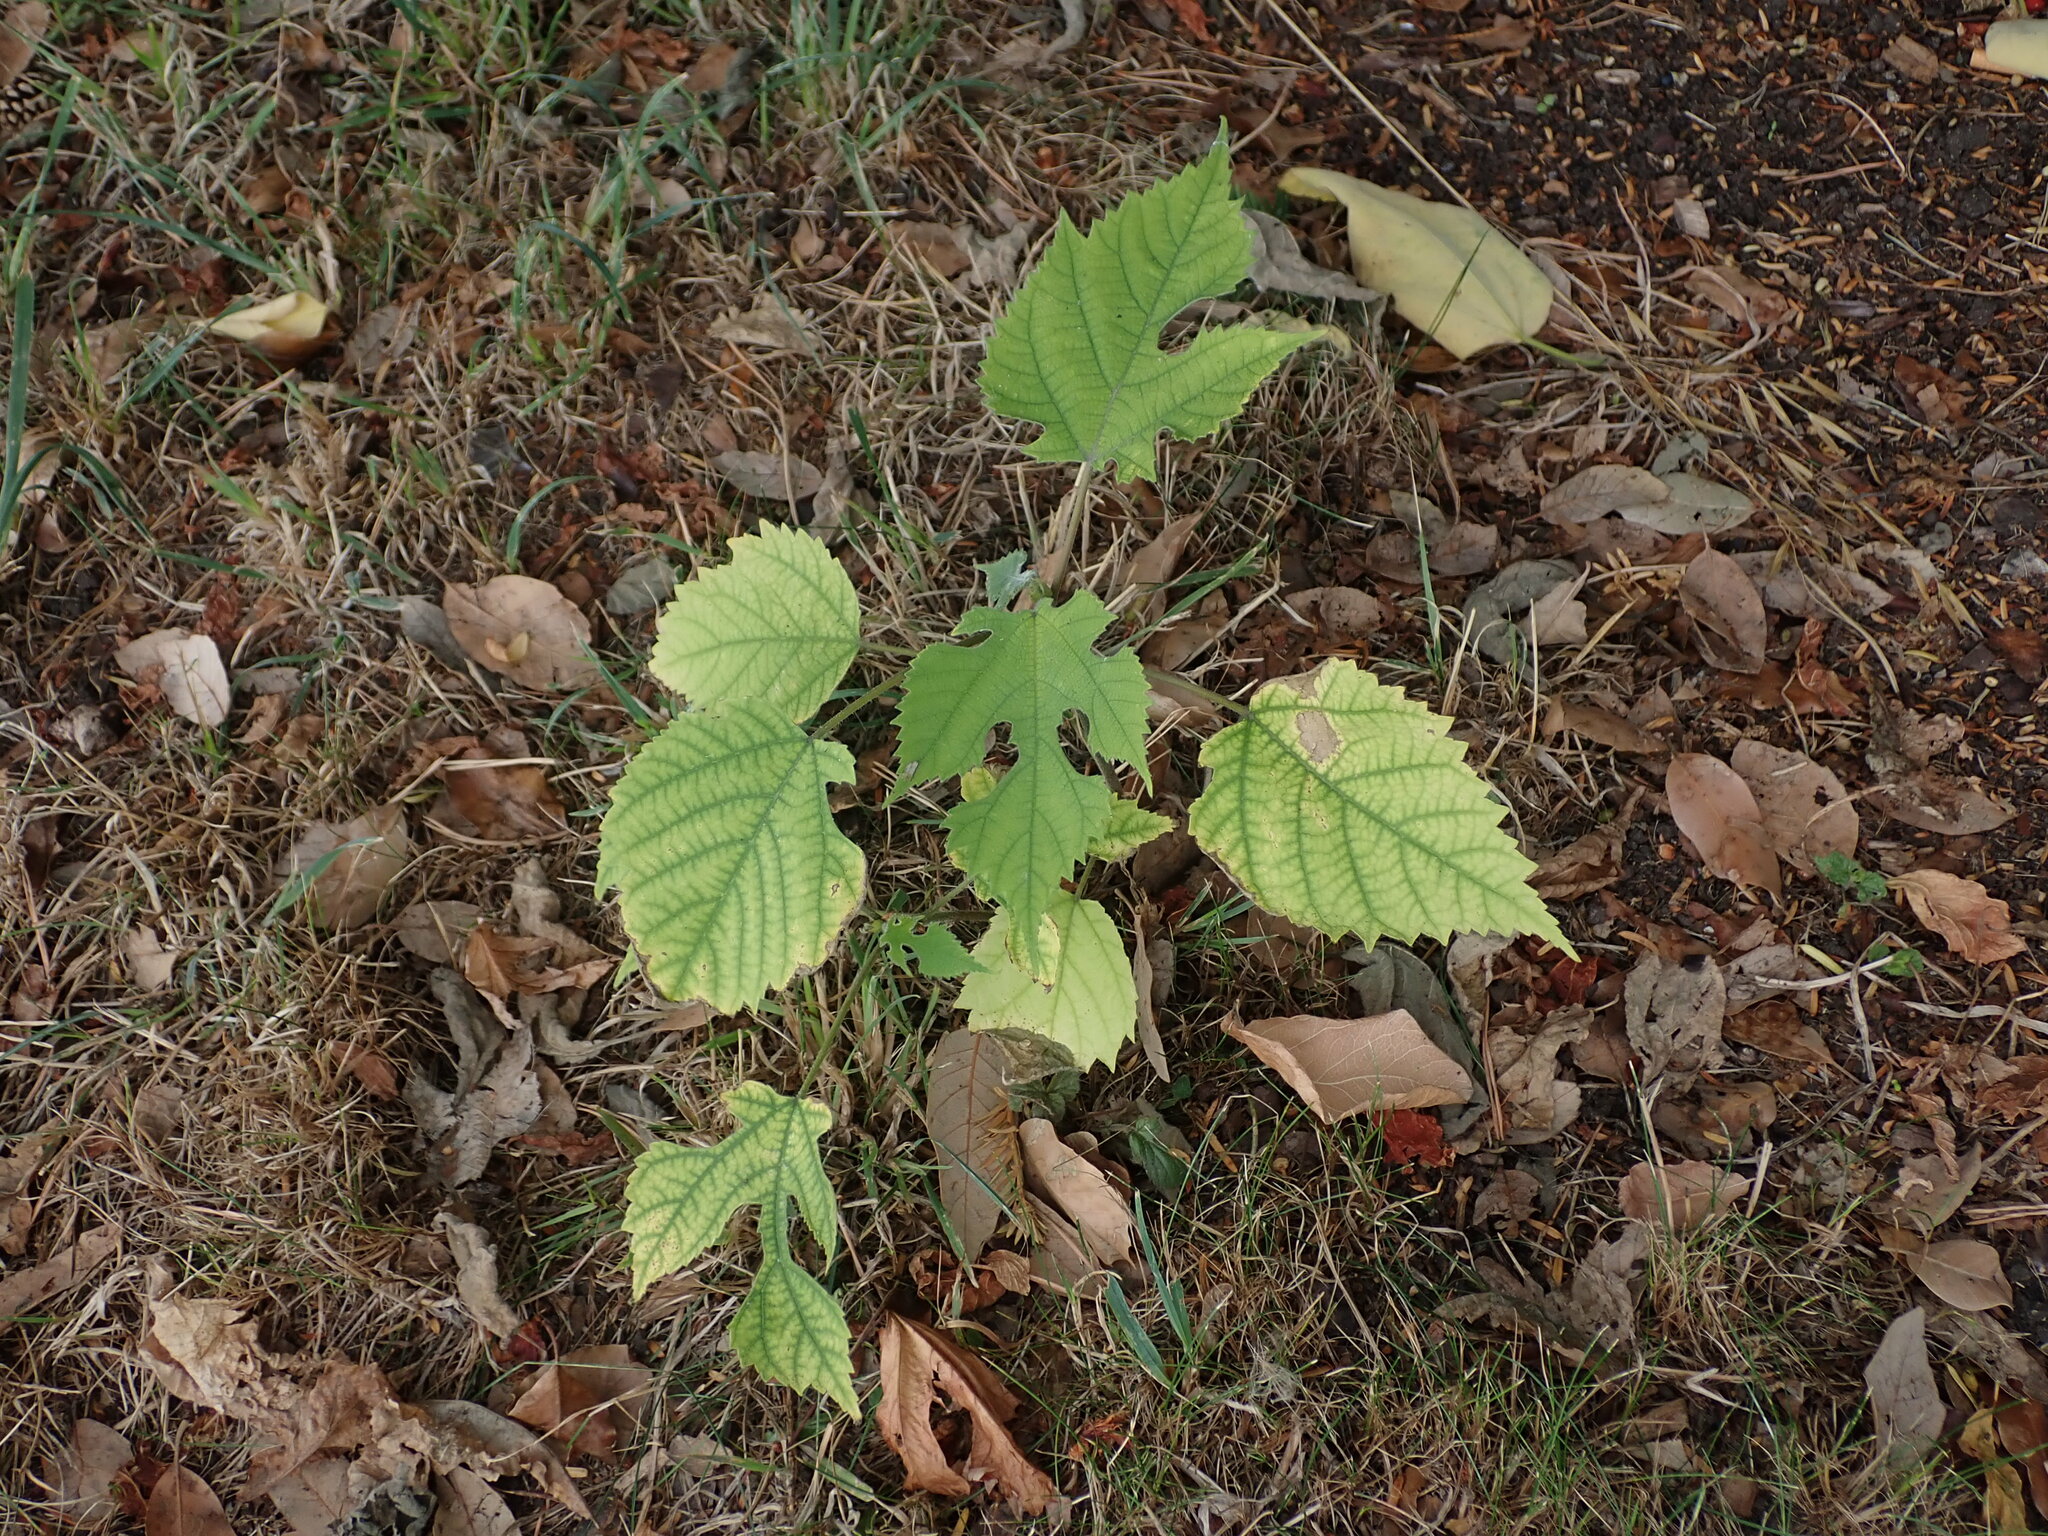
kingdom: Plantae
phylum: Tracheophyta
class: Magnoliopsida
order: Rosales
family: Moraceae
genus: Broussonetia
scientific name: Broussonetia papyrifera
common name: Paper mulberry
